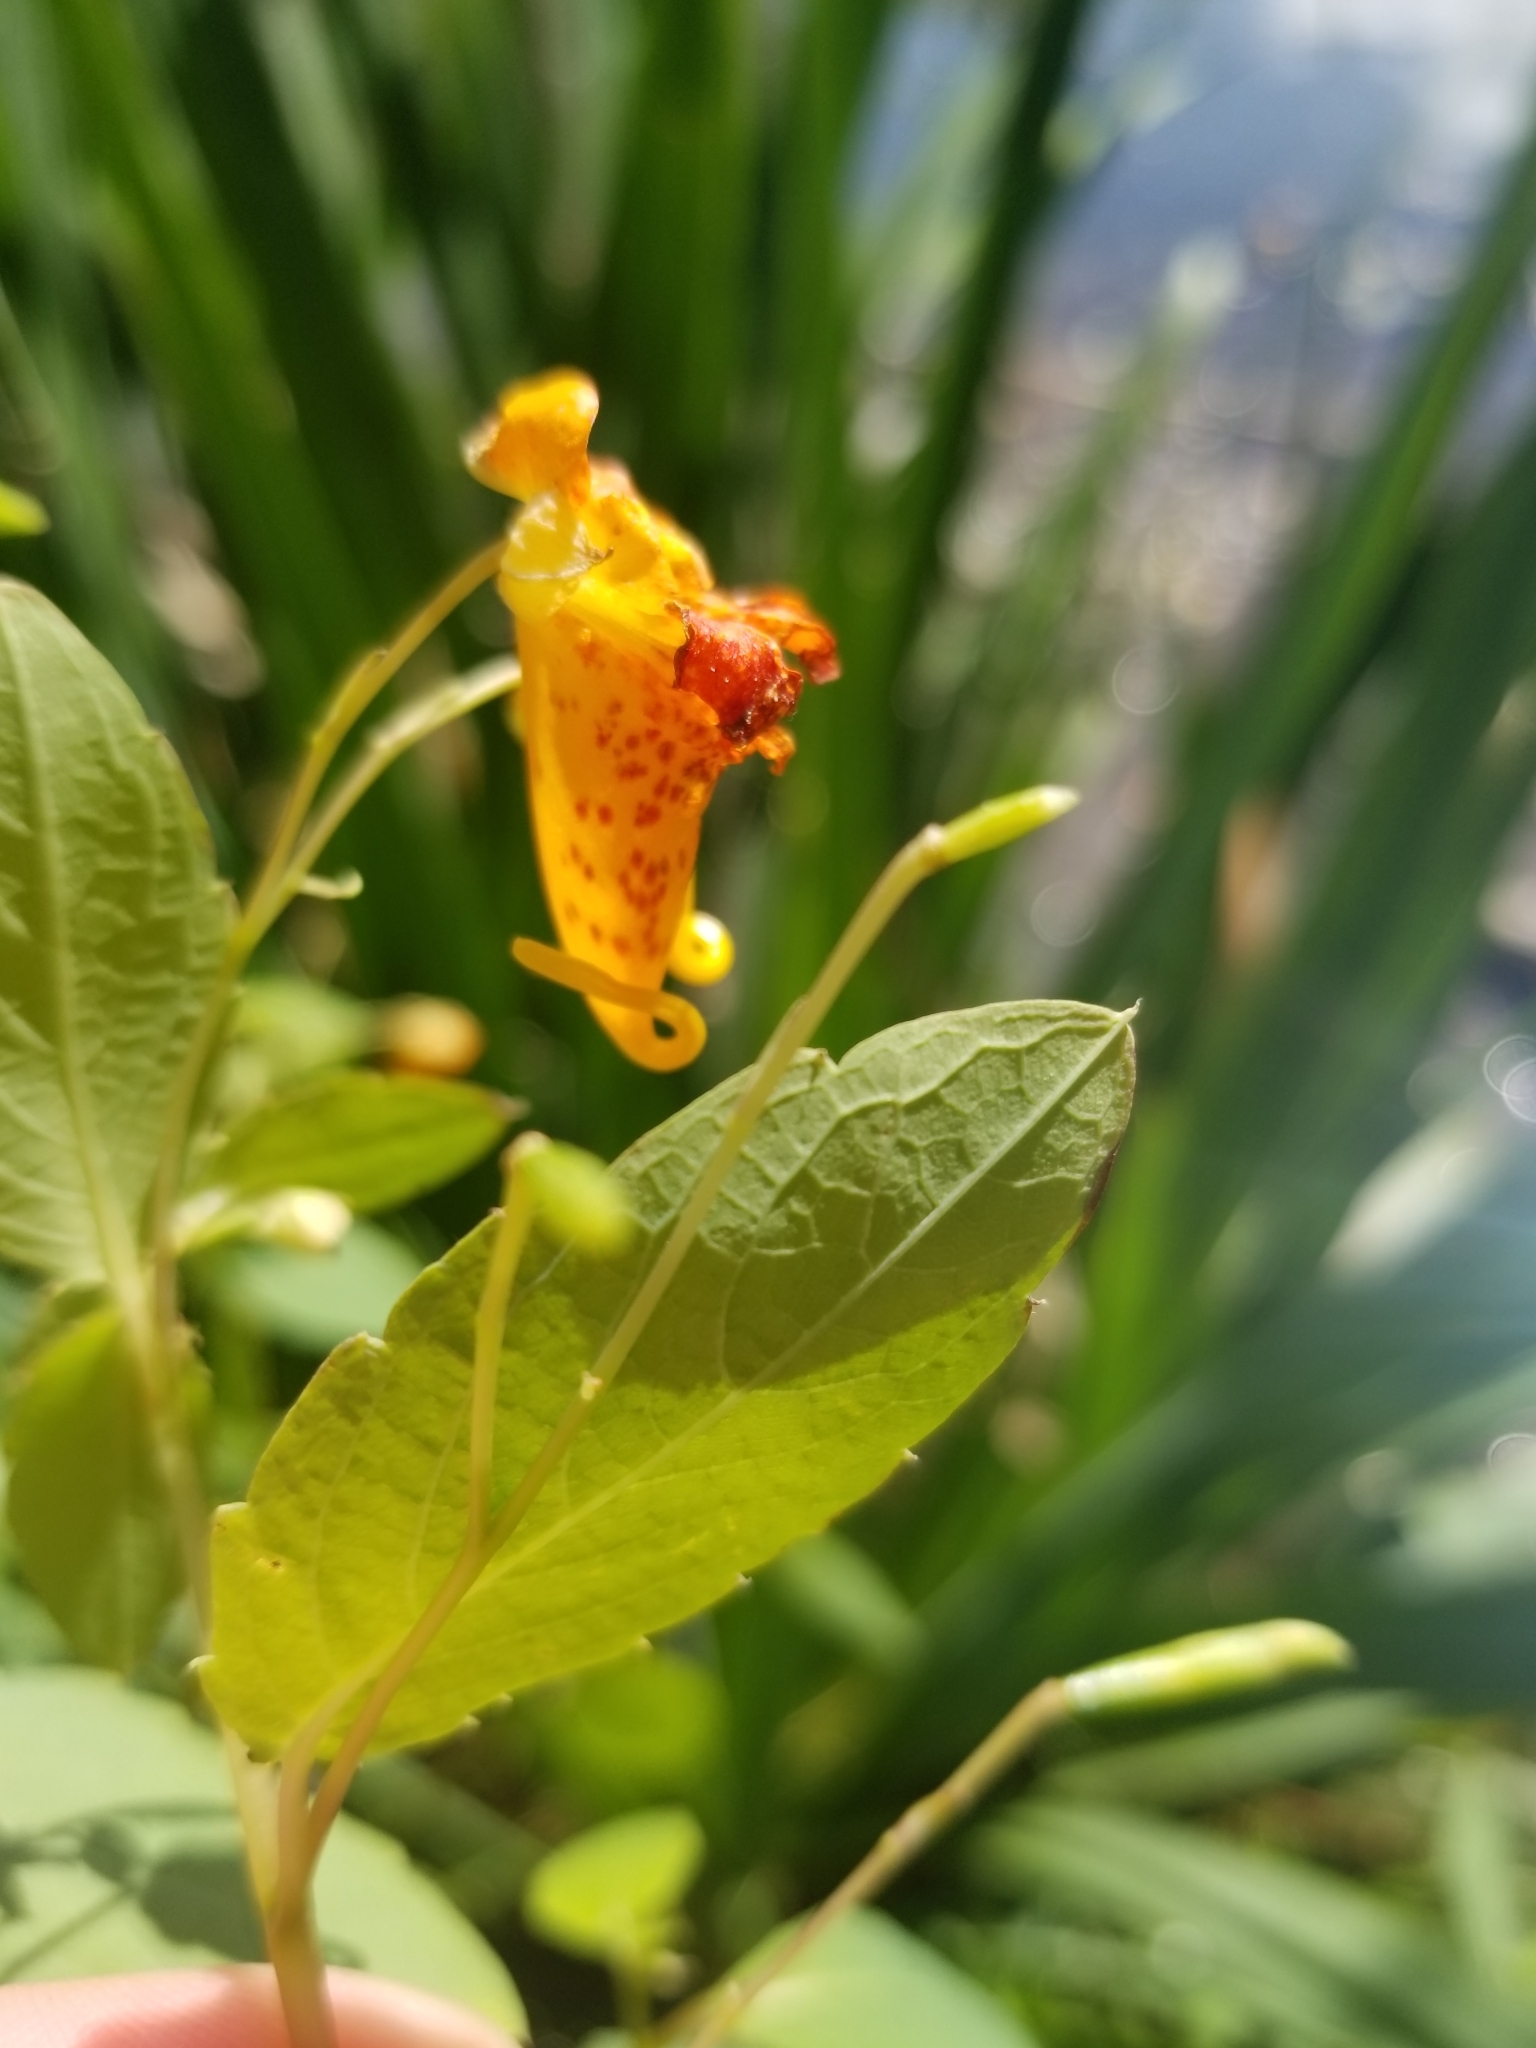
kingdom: Plantae
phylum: Tracheophyta
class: Magnoliopsida
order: Ericales
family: Balsaminaceae
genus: Impatiens
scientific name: Impatiens capensis
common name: Orange balsam
